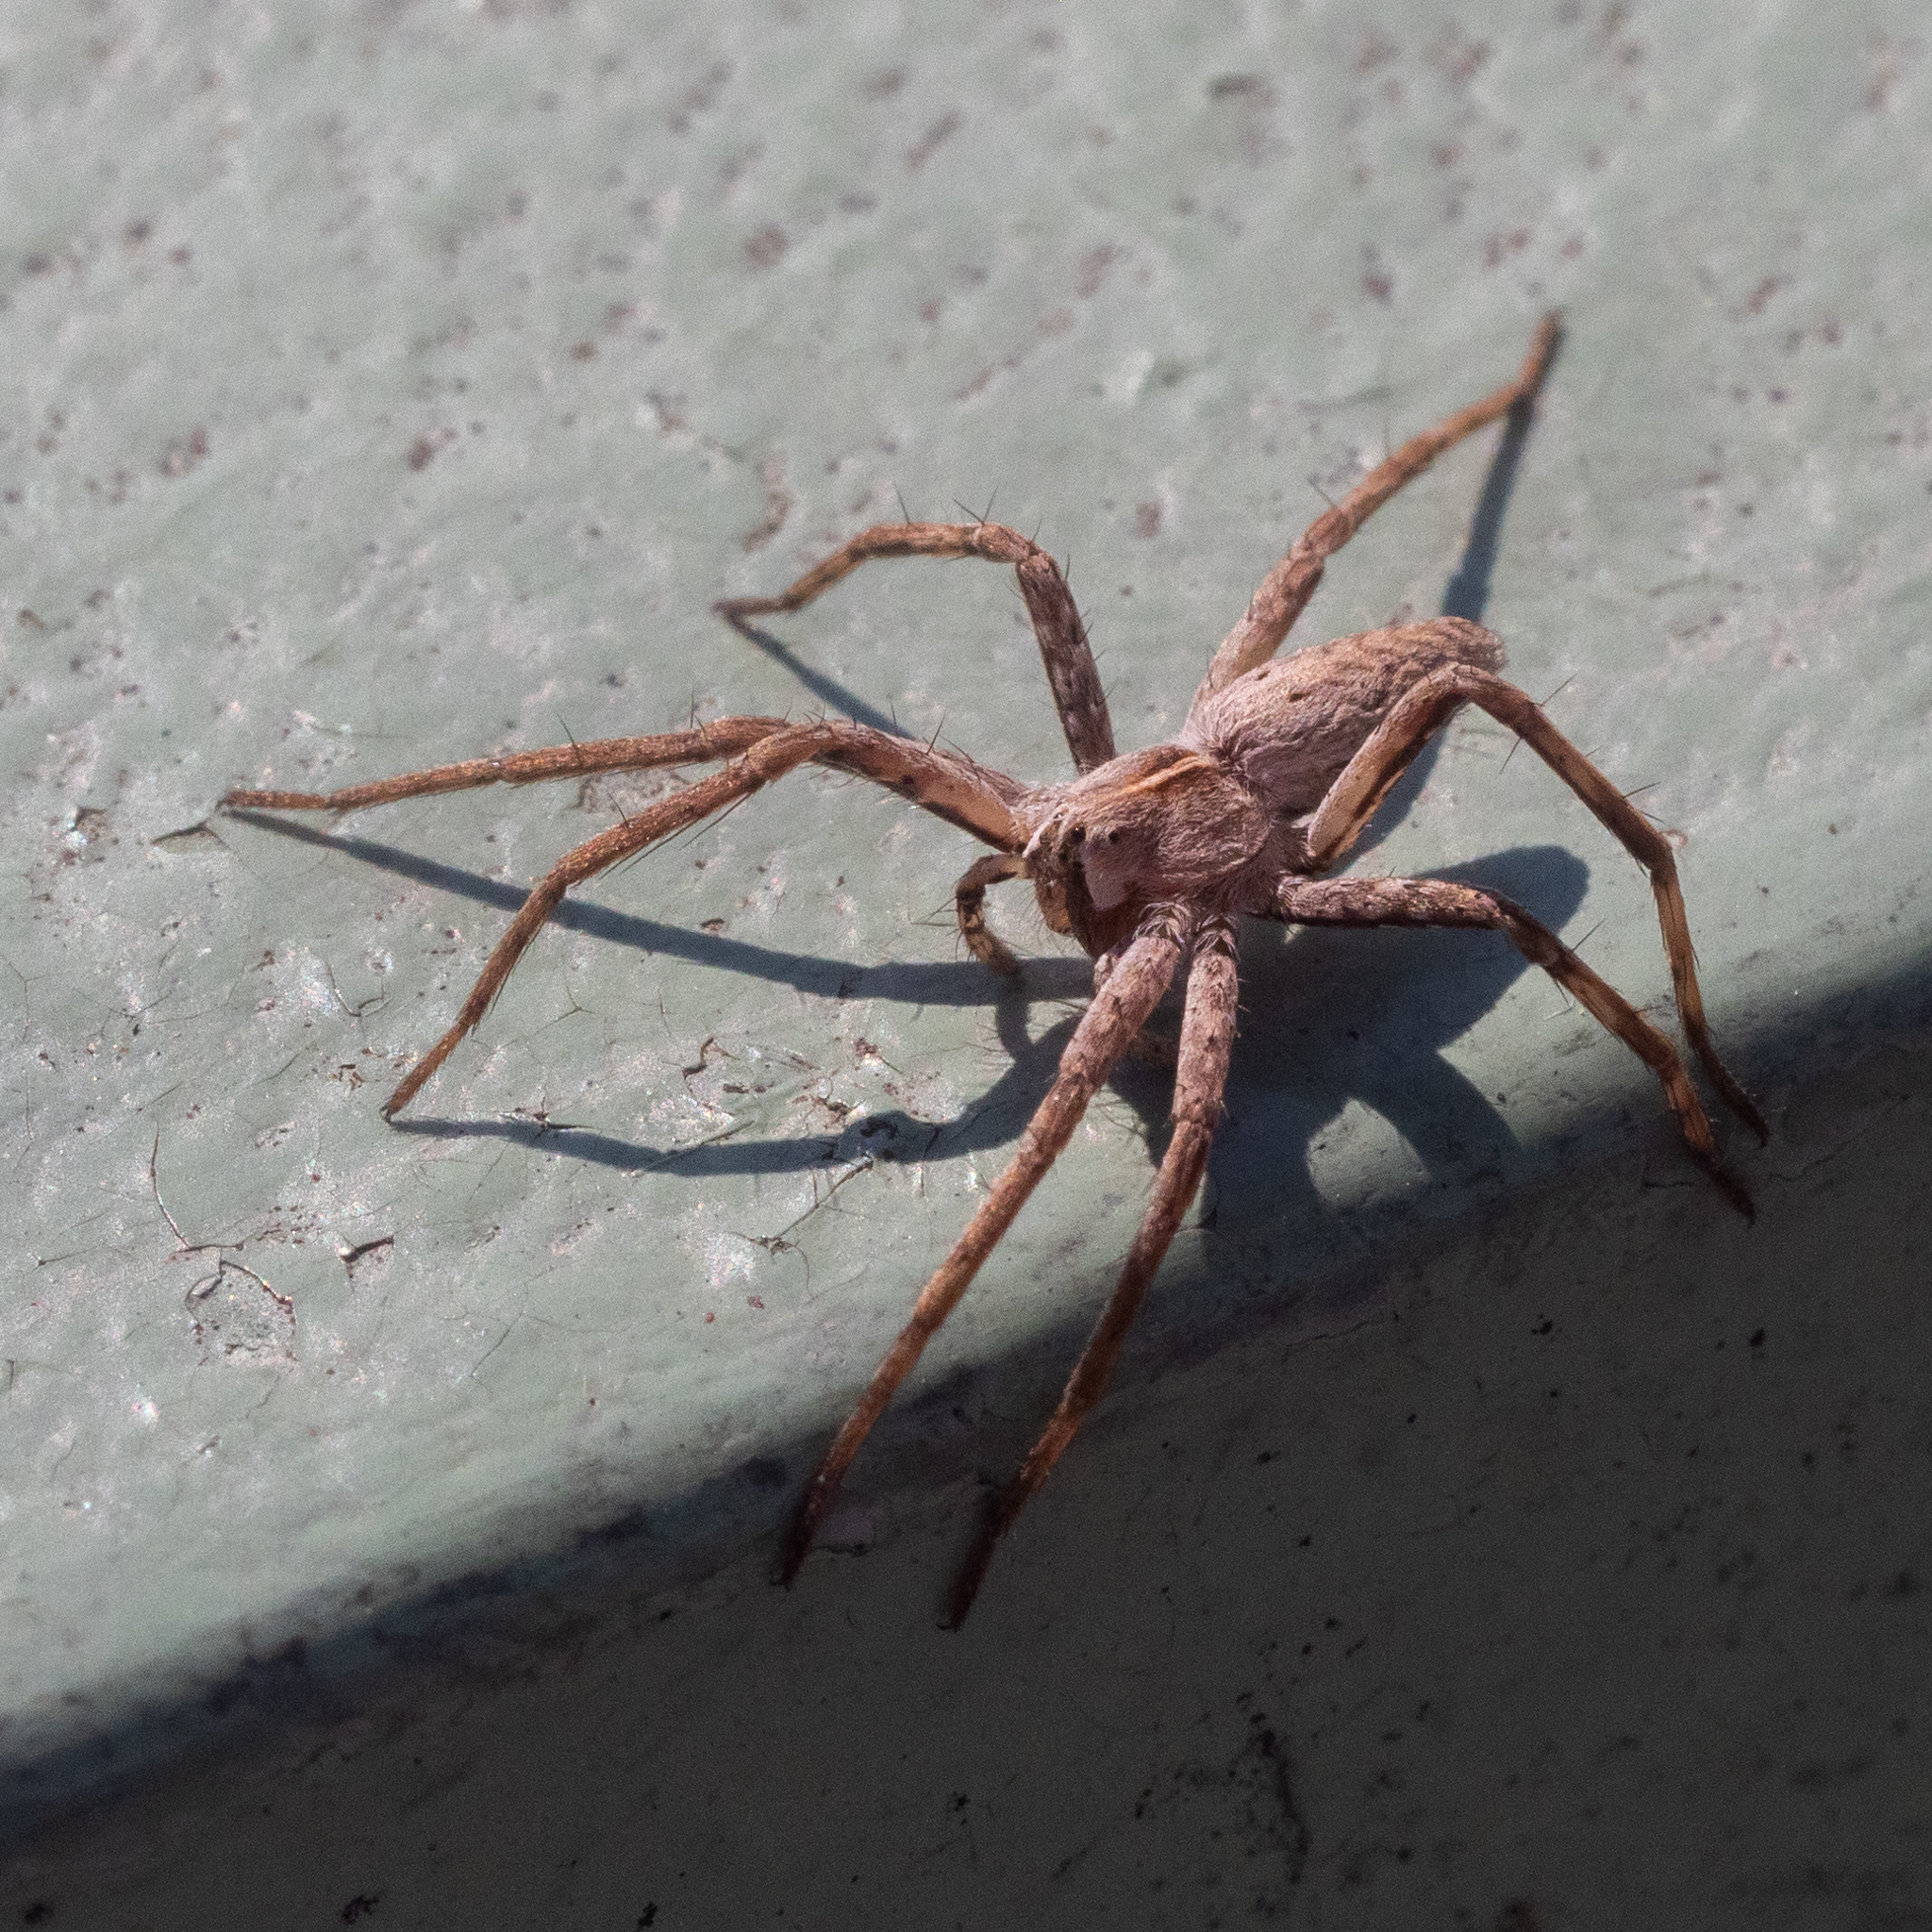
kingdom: Animalia
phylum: Arthropoda
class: Arachnida
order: Araneae
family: Pisauridae
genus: Pisaura
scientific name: Pisaura mirabilis
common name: Tent spider
